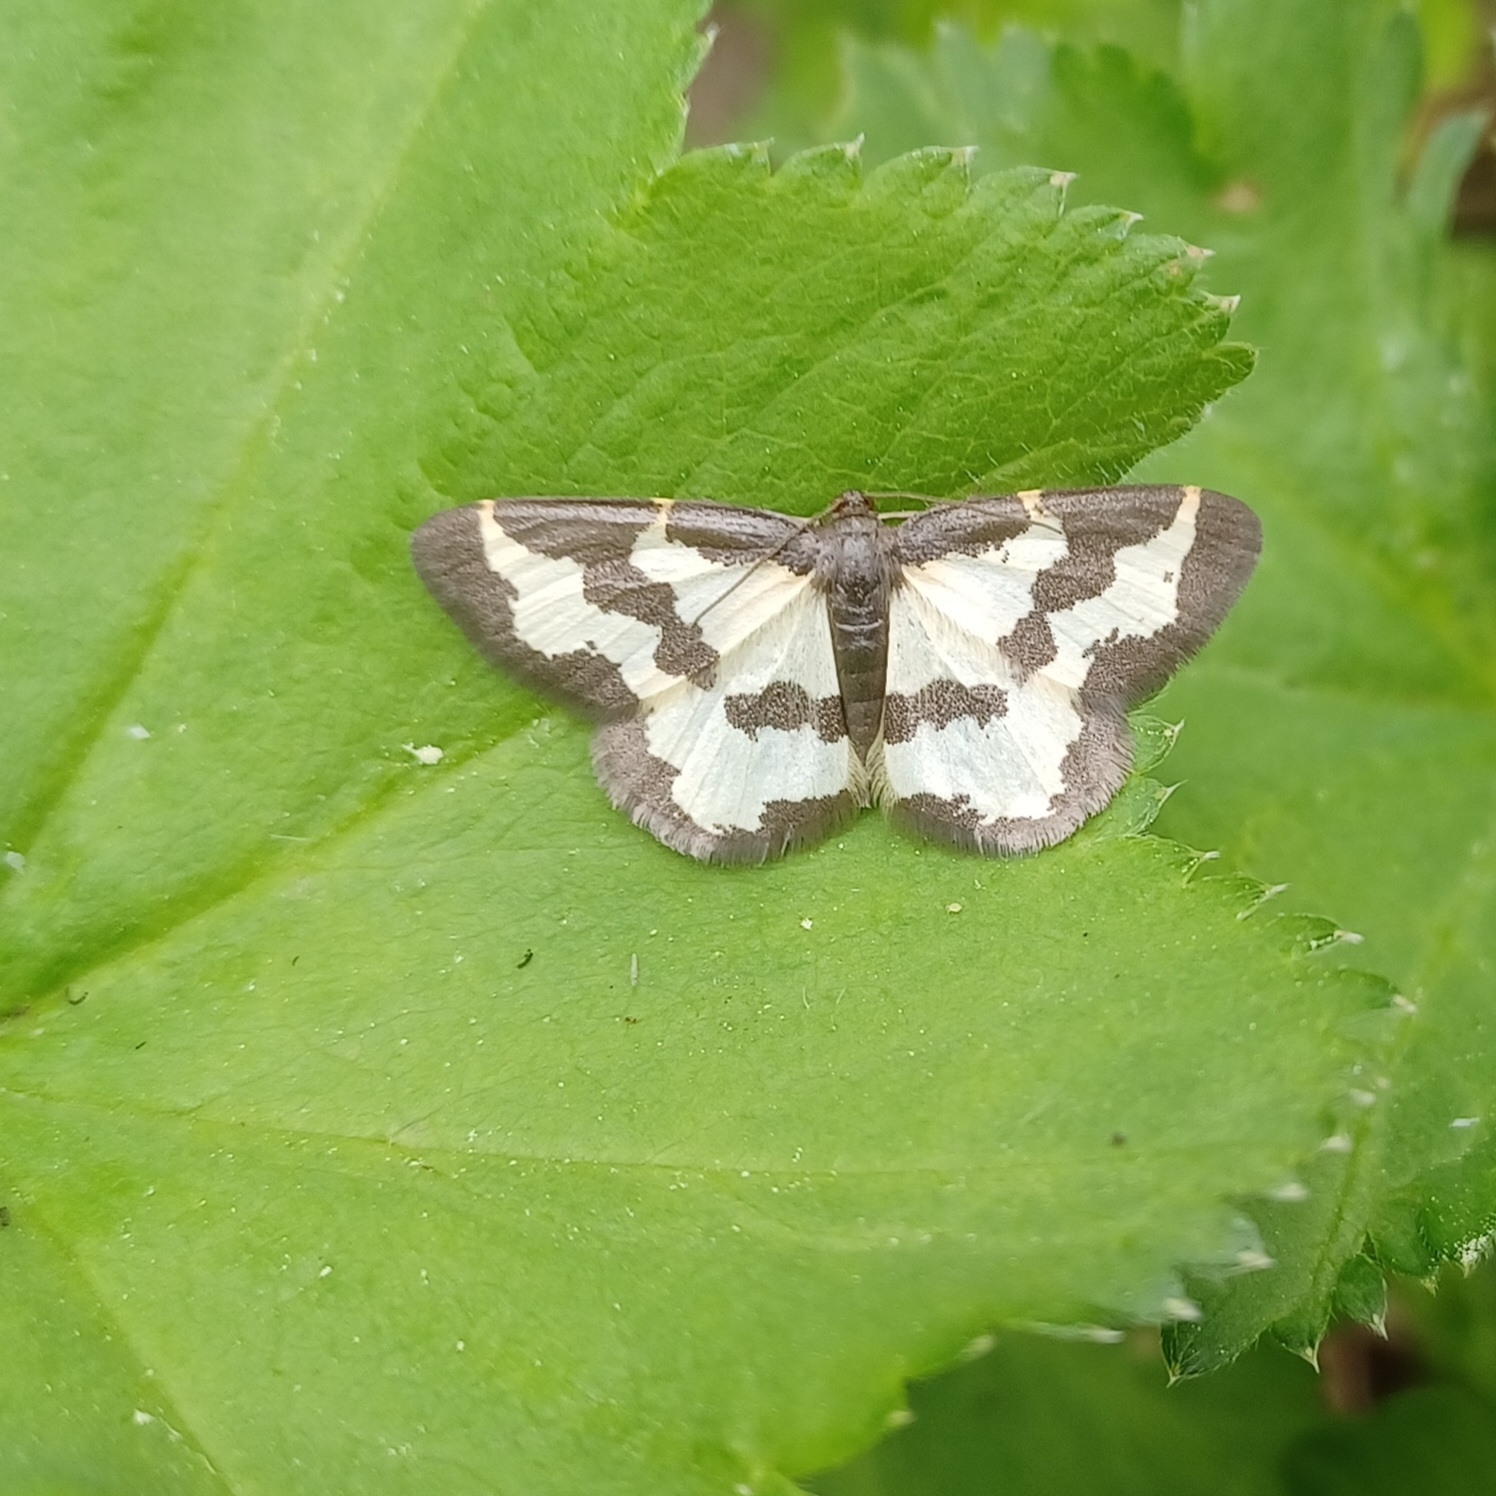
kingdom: Animalia
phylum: Arthropoda
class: Insecta
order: Lepidoptera
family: Geometridae
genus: Lomaspilis
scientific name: Lomaspilis marginata
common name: Clouded border
